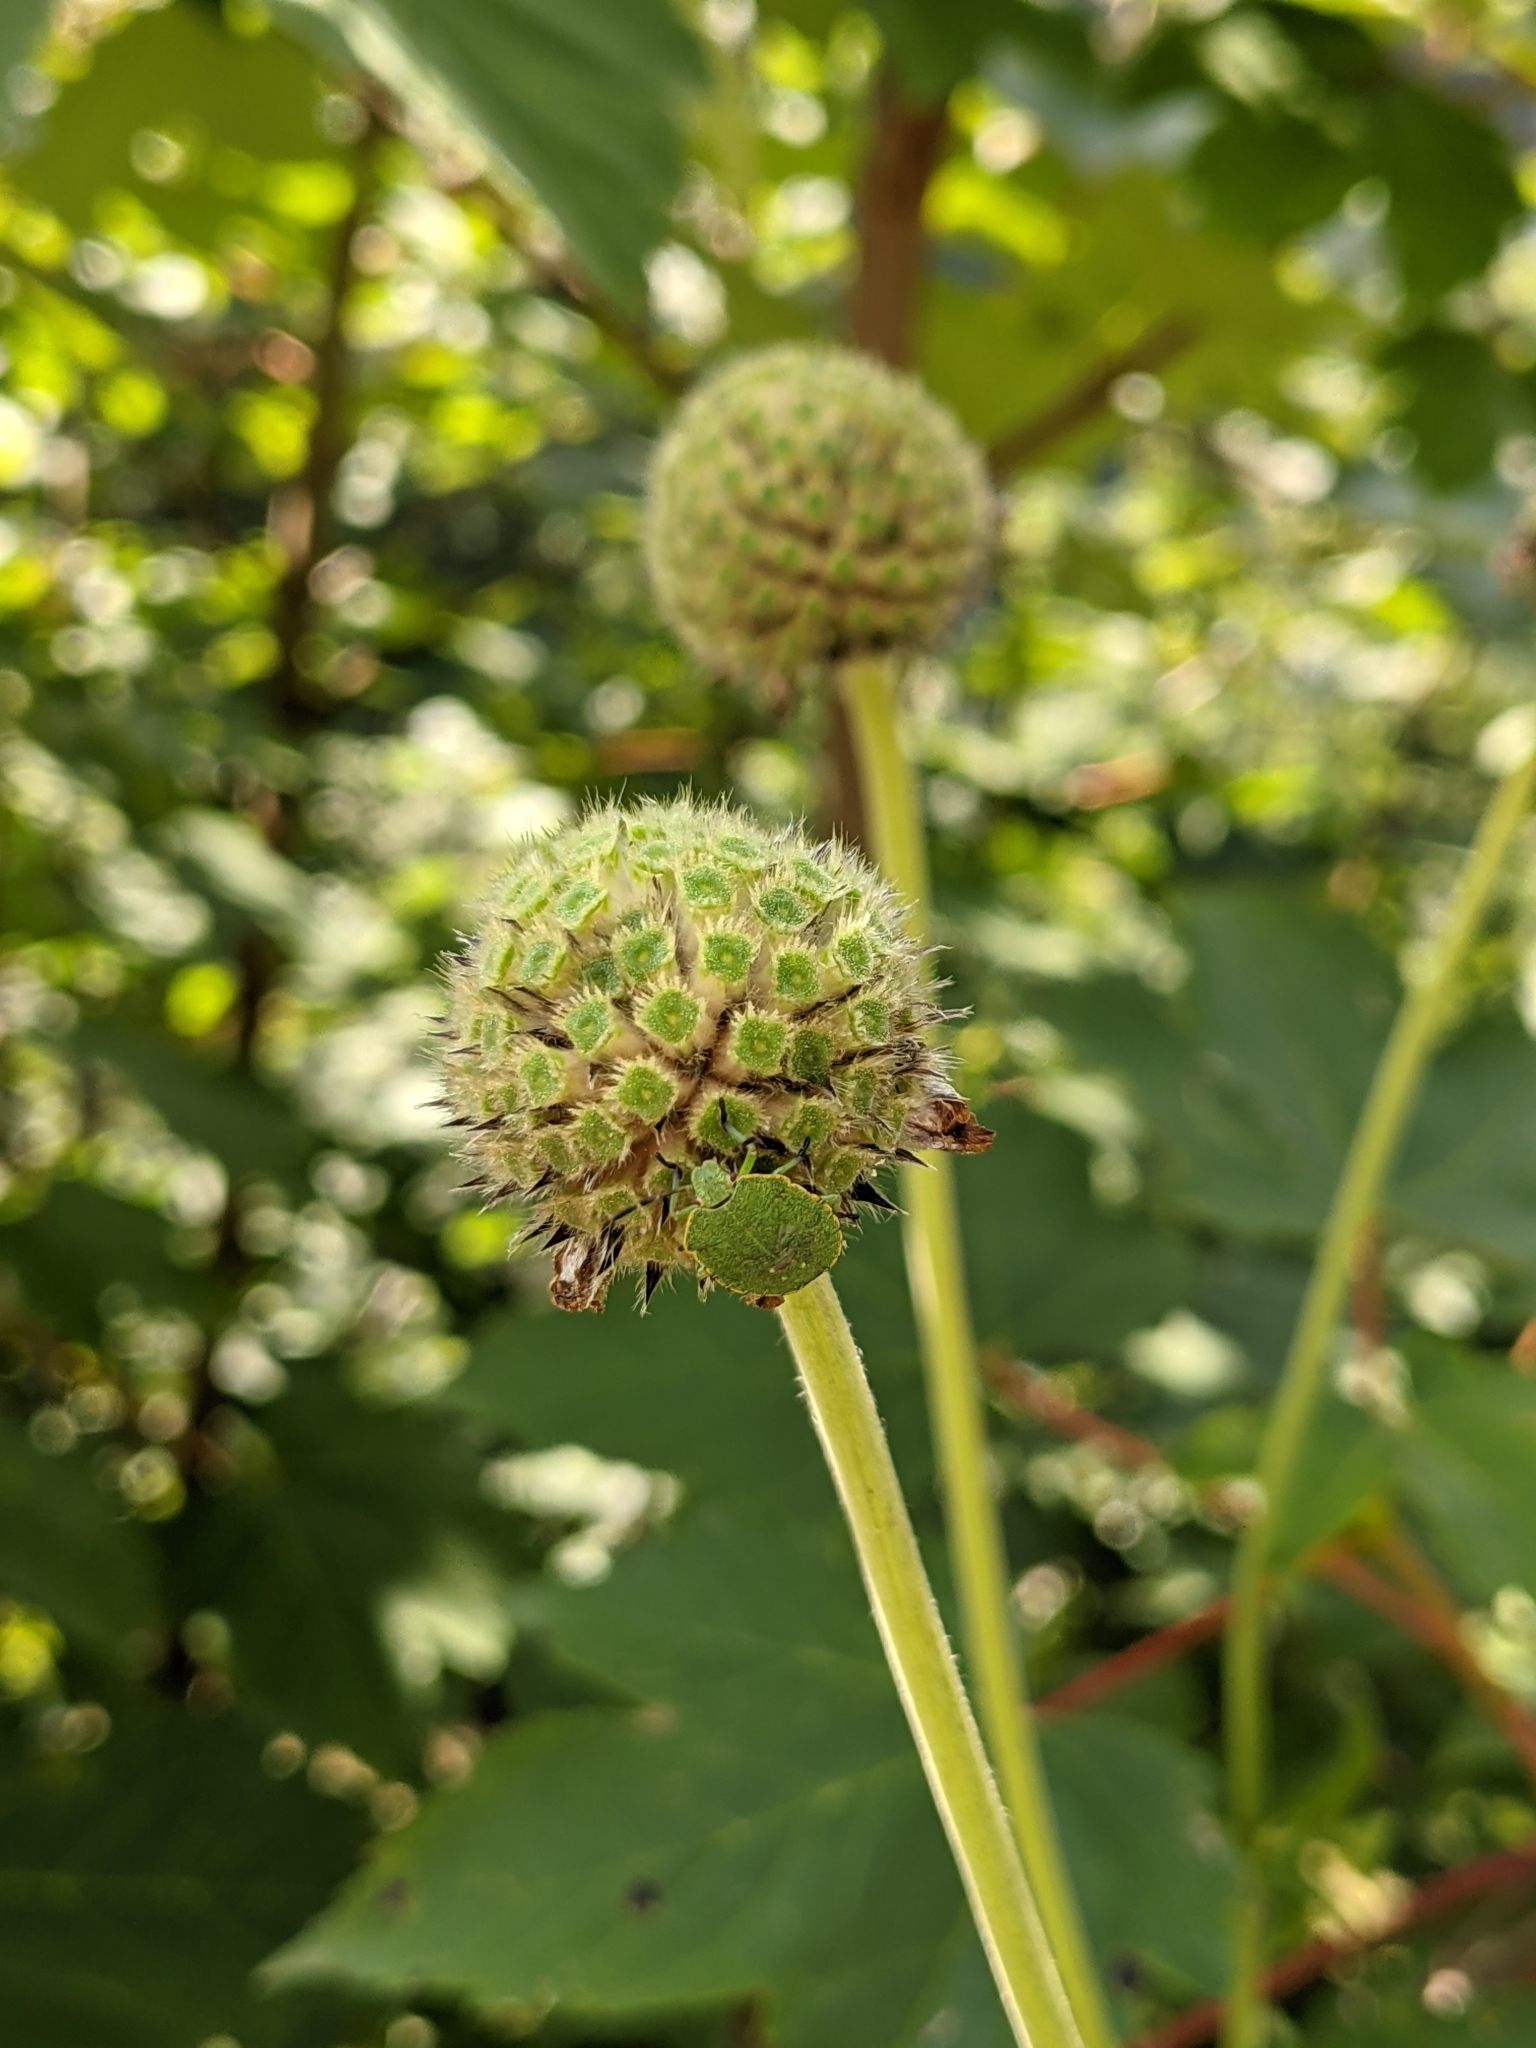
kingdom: Animalia
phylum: Arthropoda
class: Insecta
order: Hemiptera
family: Pentatomidae
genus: Palomena
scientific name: Palomena prasina
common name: Green shieldbug
